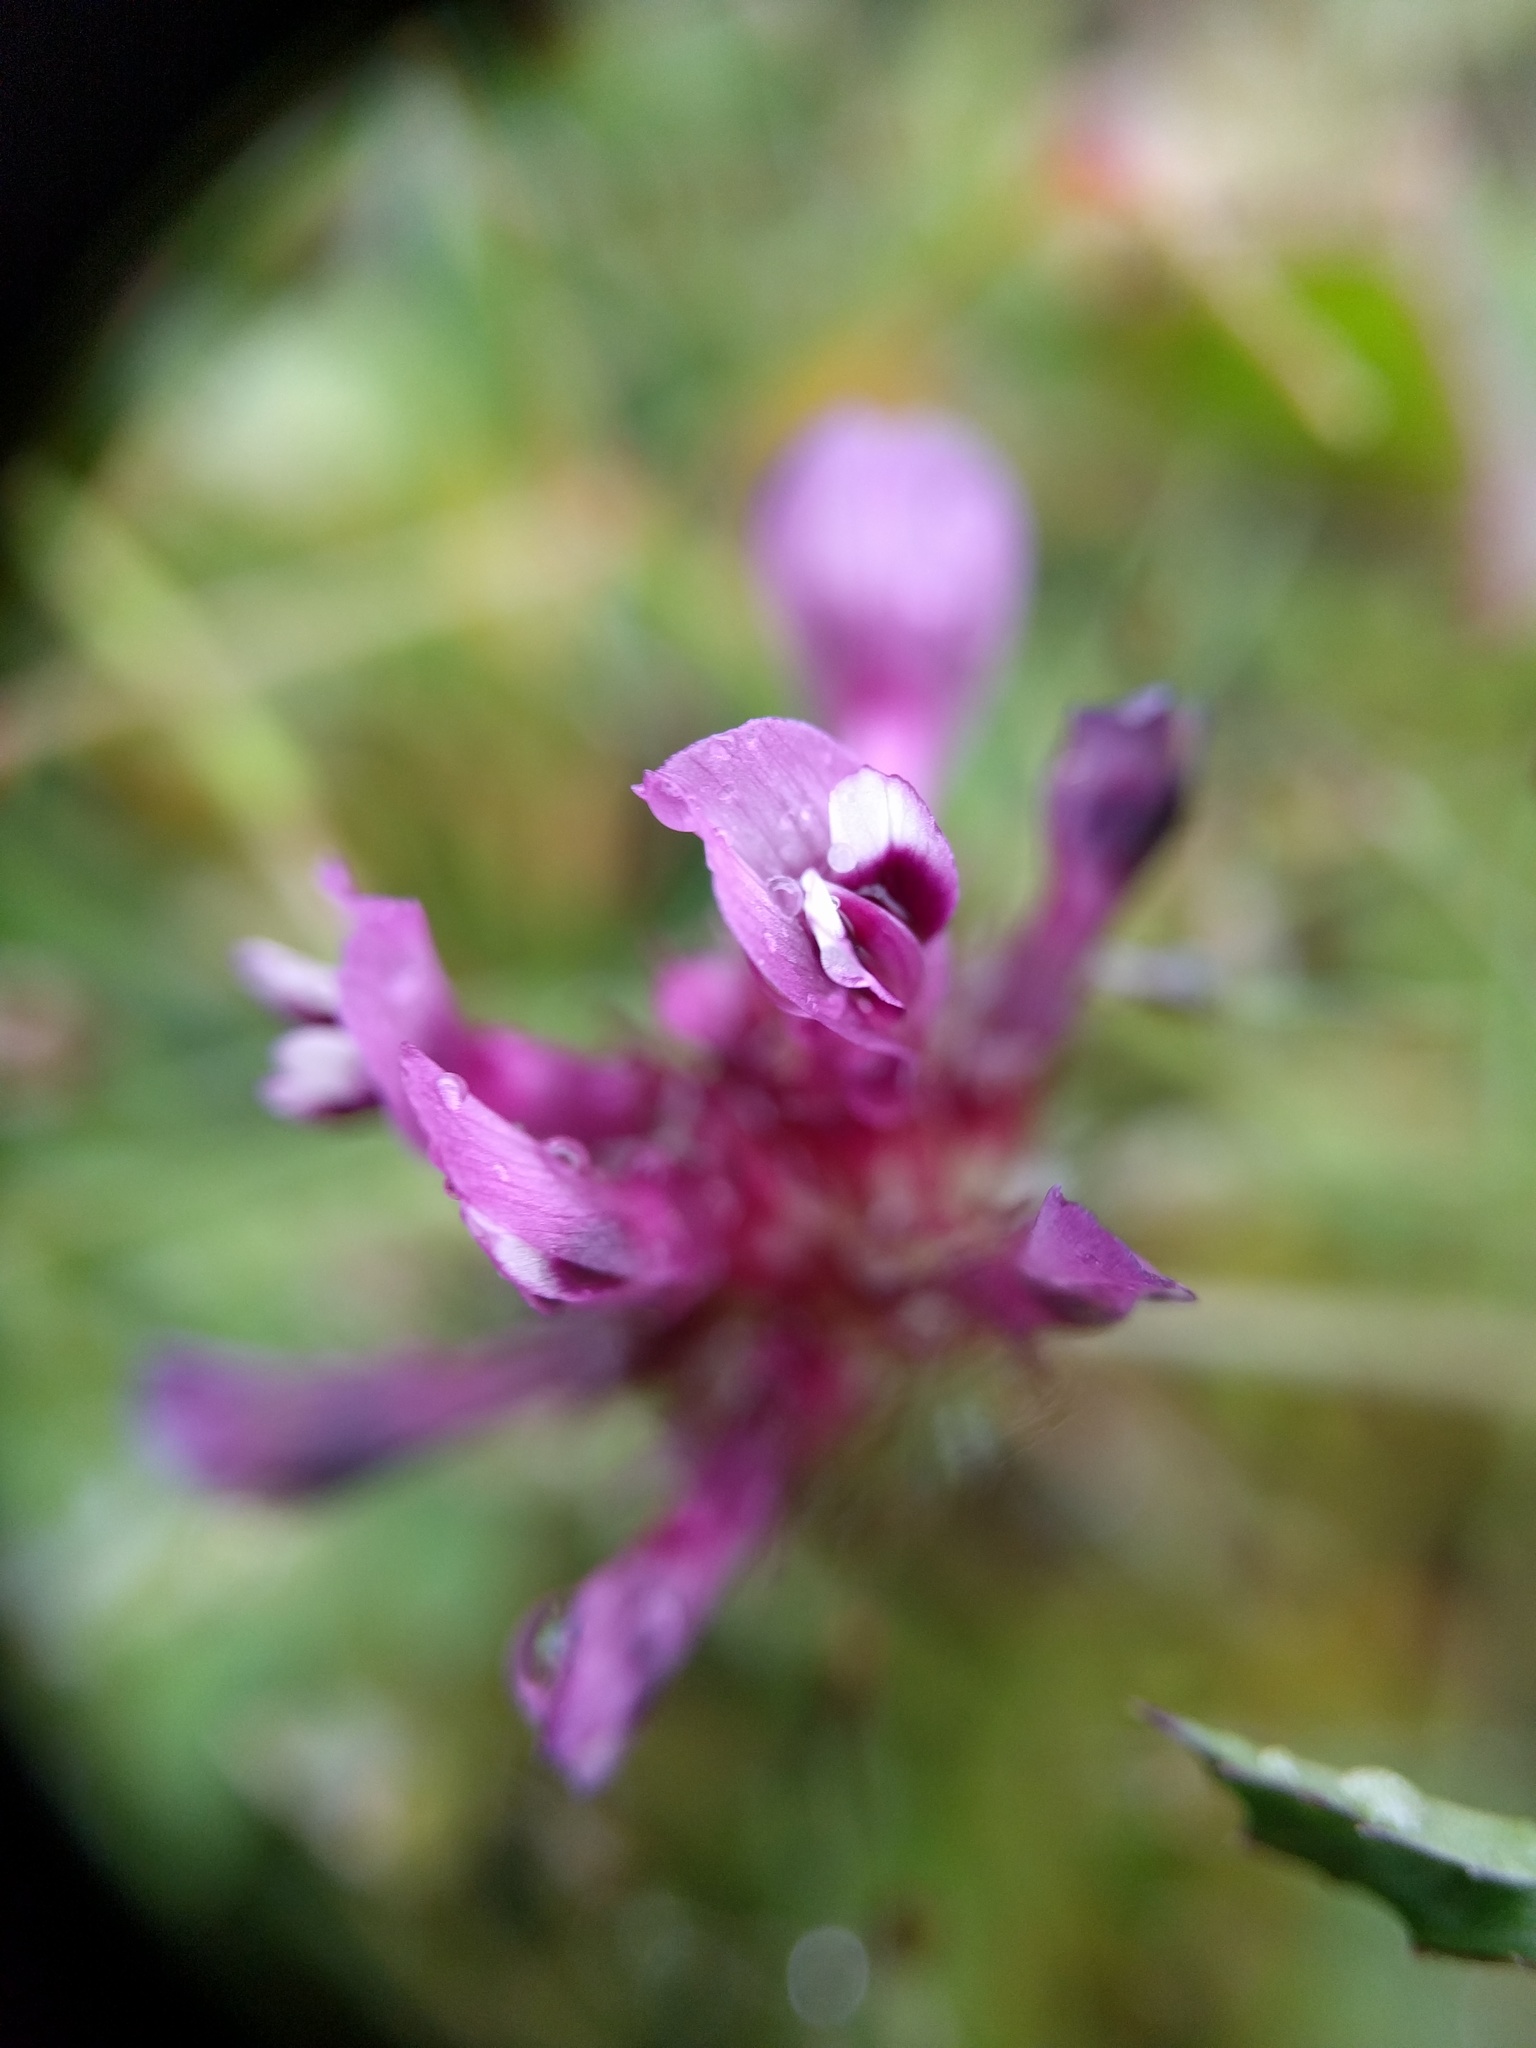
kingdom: Plantae
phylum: Tracheophyta
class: Magnoliopsida
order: Fabales
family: Fabaceae
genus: Trifolium
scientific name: Trifolium willdenovii
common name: Tomcat clover
